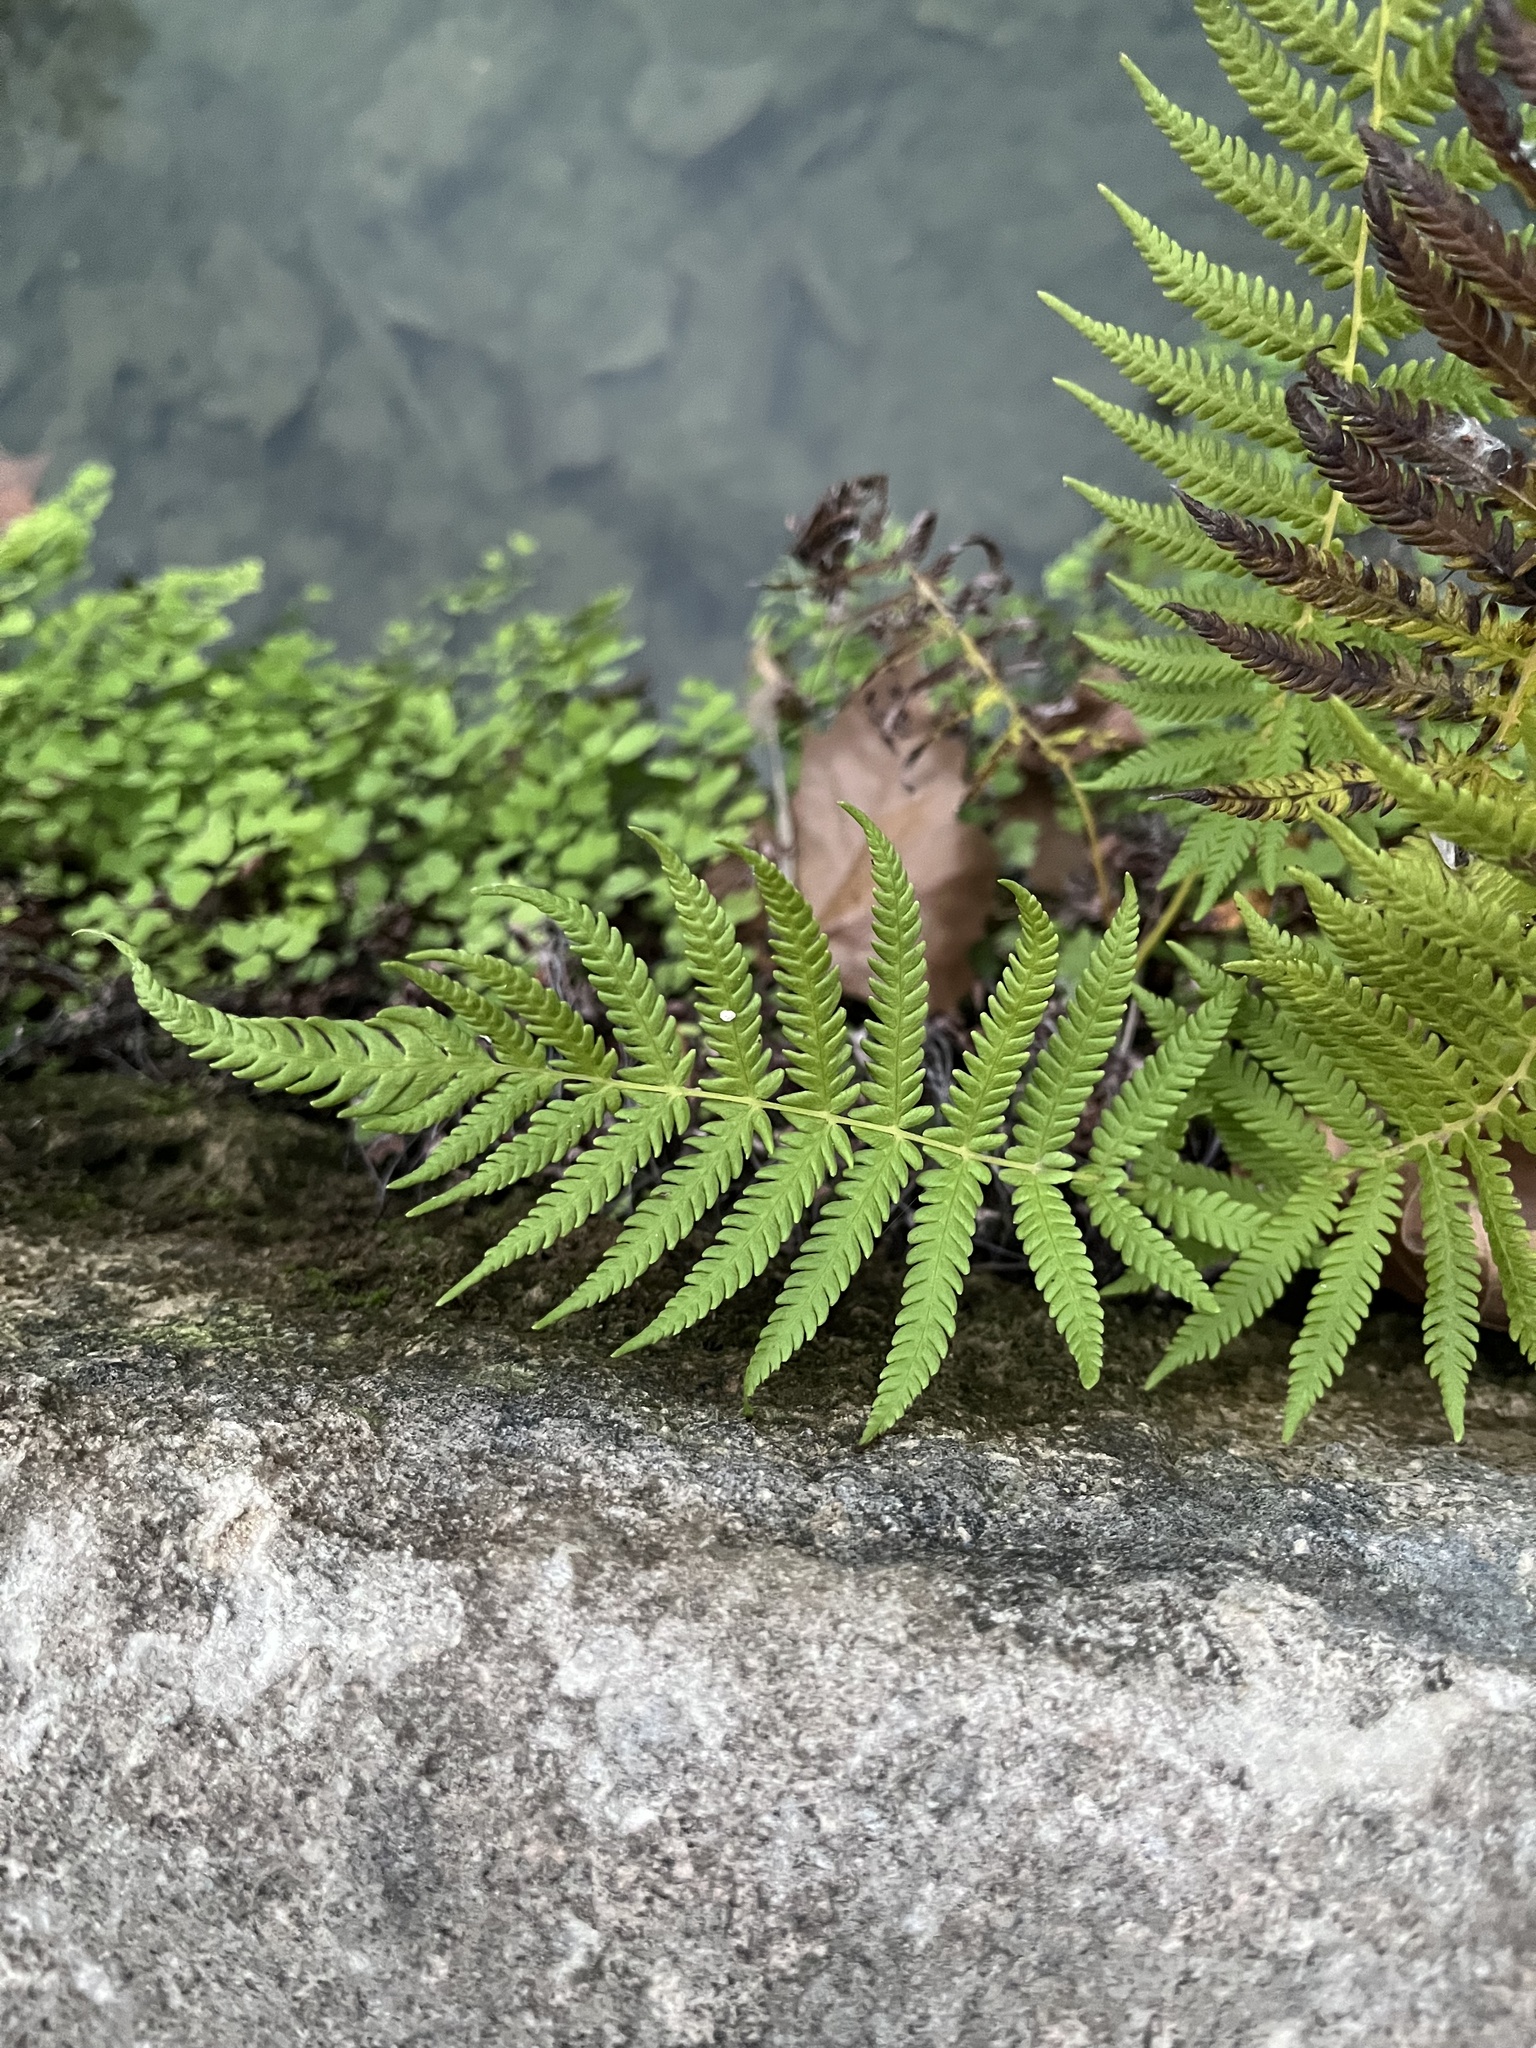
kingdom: Plantae
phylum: Tracheophyta
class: Polypodiopsida
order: Polypodiales
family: Thelypteridaceae
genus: Pelazoneuron
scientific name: Pelazoneuron ovatum
